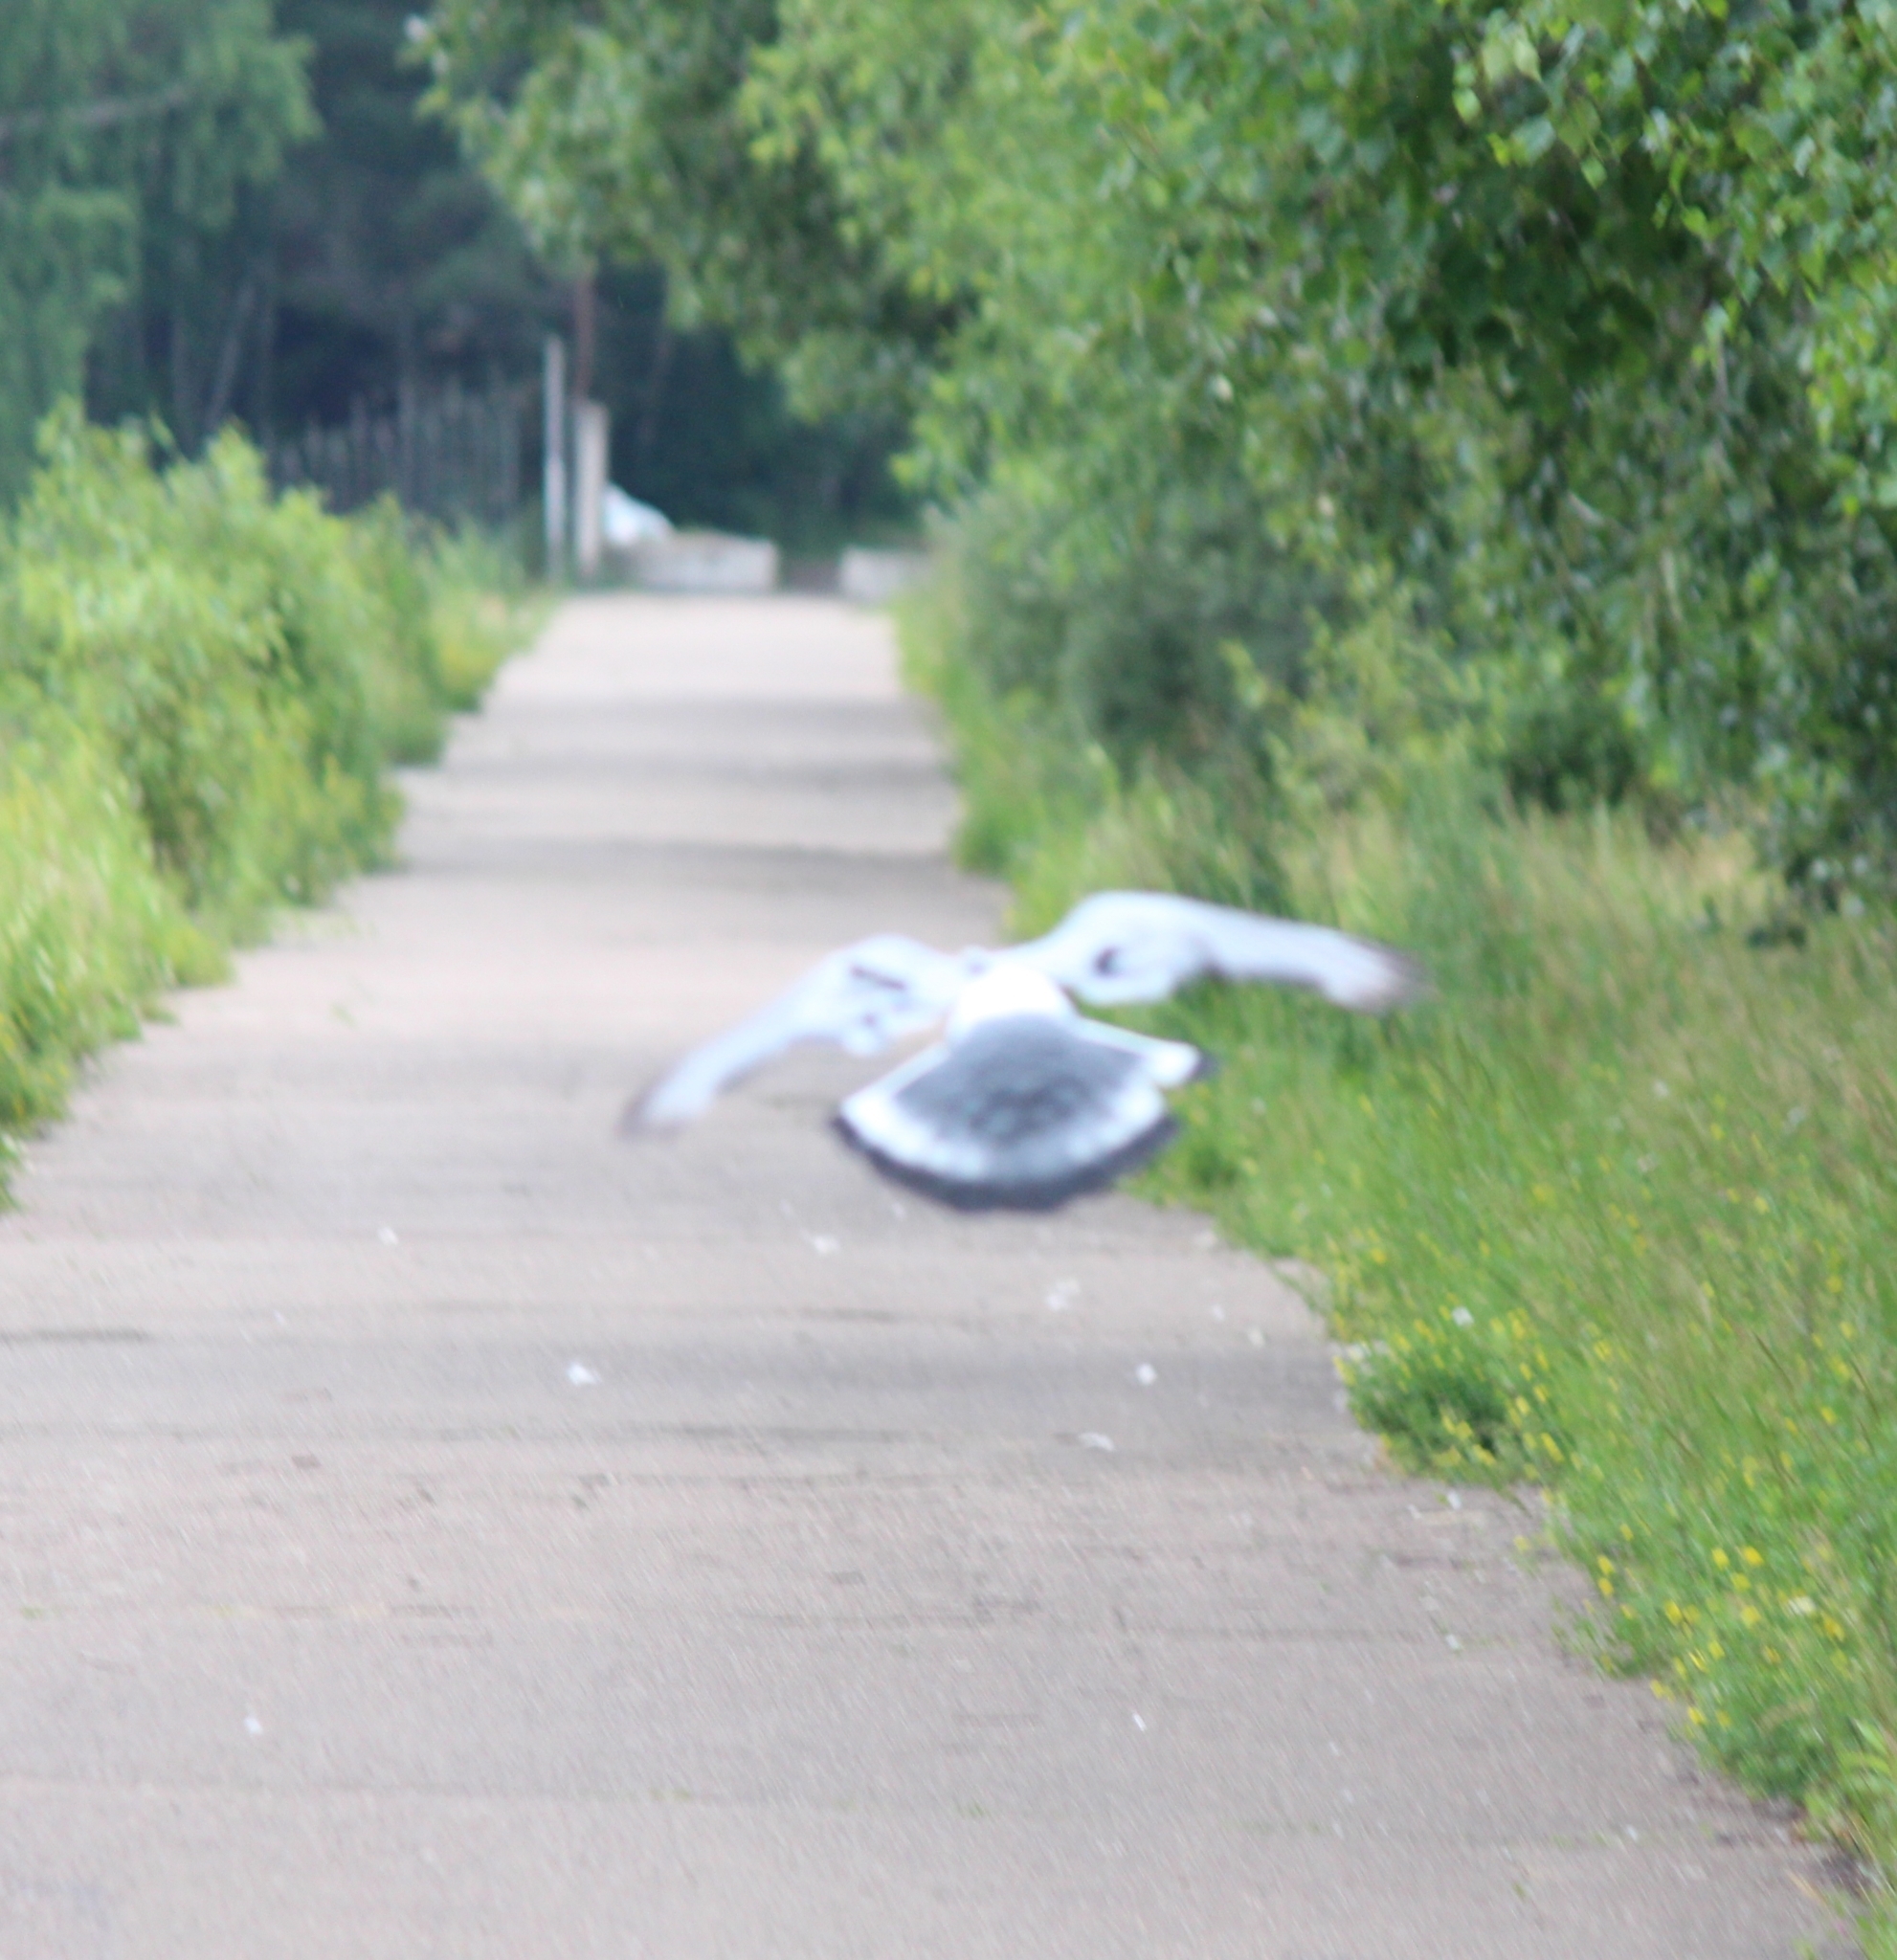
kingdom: Animalia
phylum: Chordata
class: Aves
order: Columbiformes
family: Columbidae
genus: Columba
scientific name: Columba rupestris
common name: Hill pigeon
